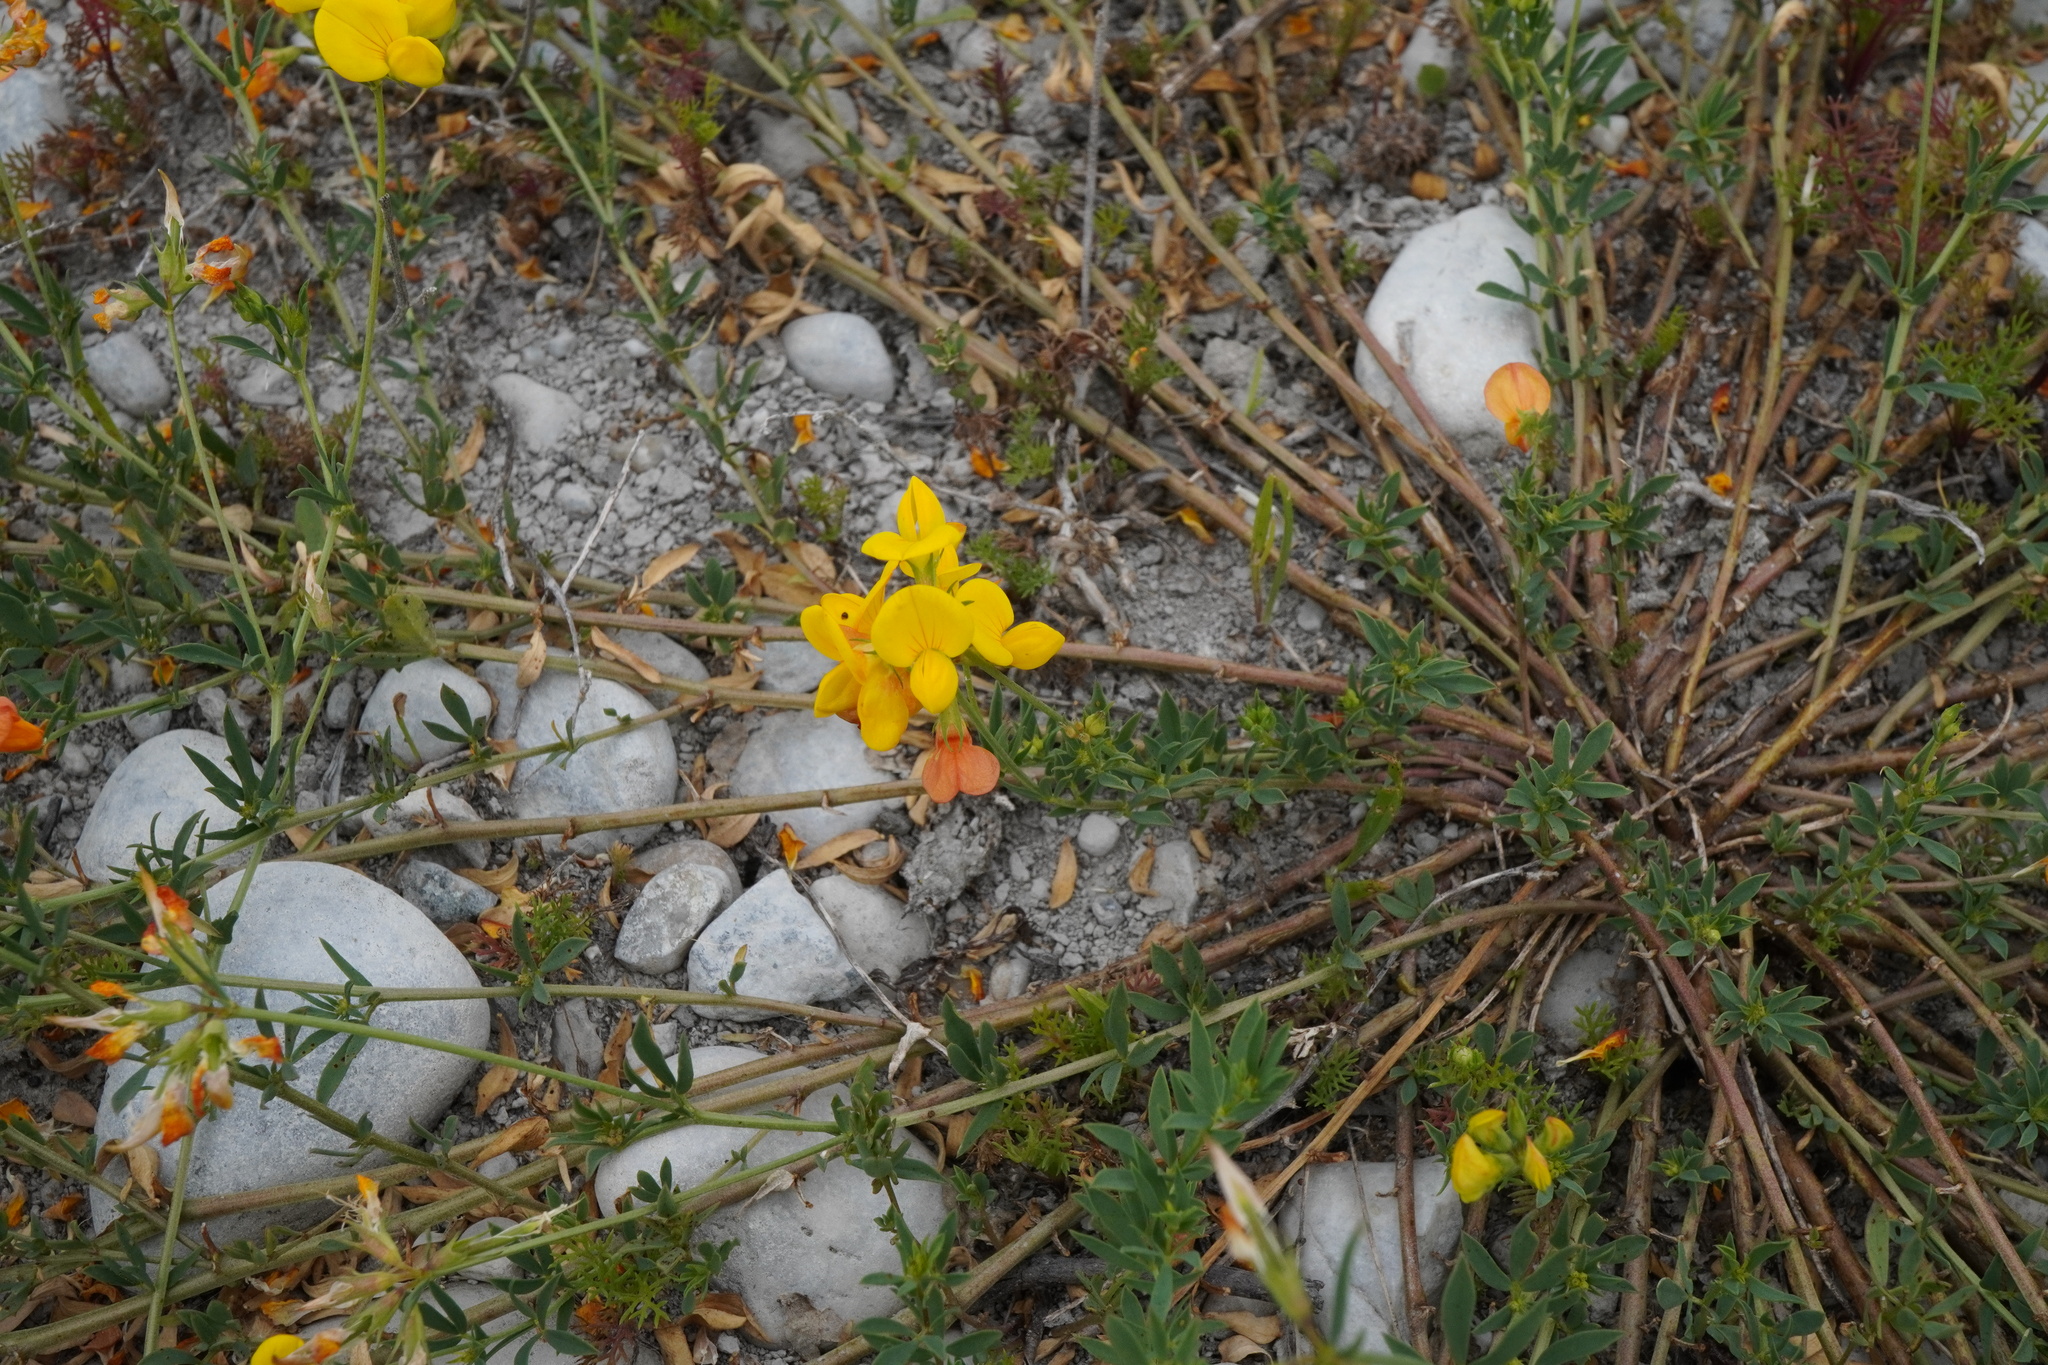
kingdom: Plantae
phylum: Tracheophyta
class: Magnoliopsida
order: Fabales
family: Fabaceae
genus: Lotus
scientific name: Lotus tenuis
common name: Narrow-leaved bird's-foot-trefoil
